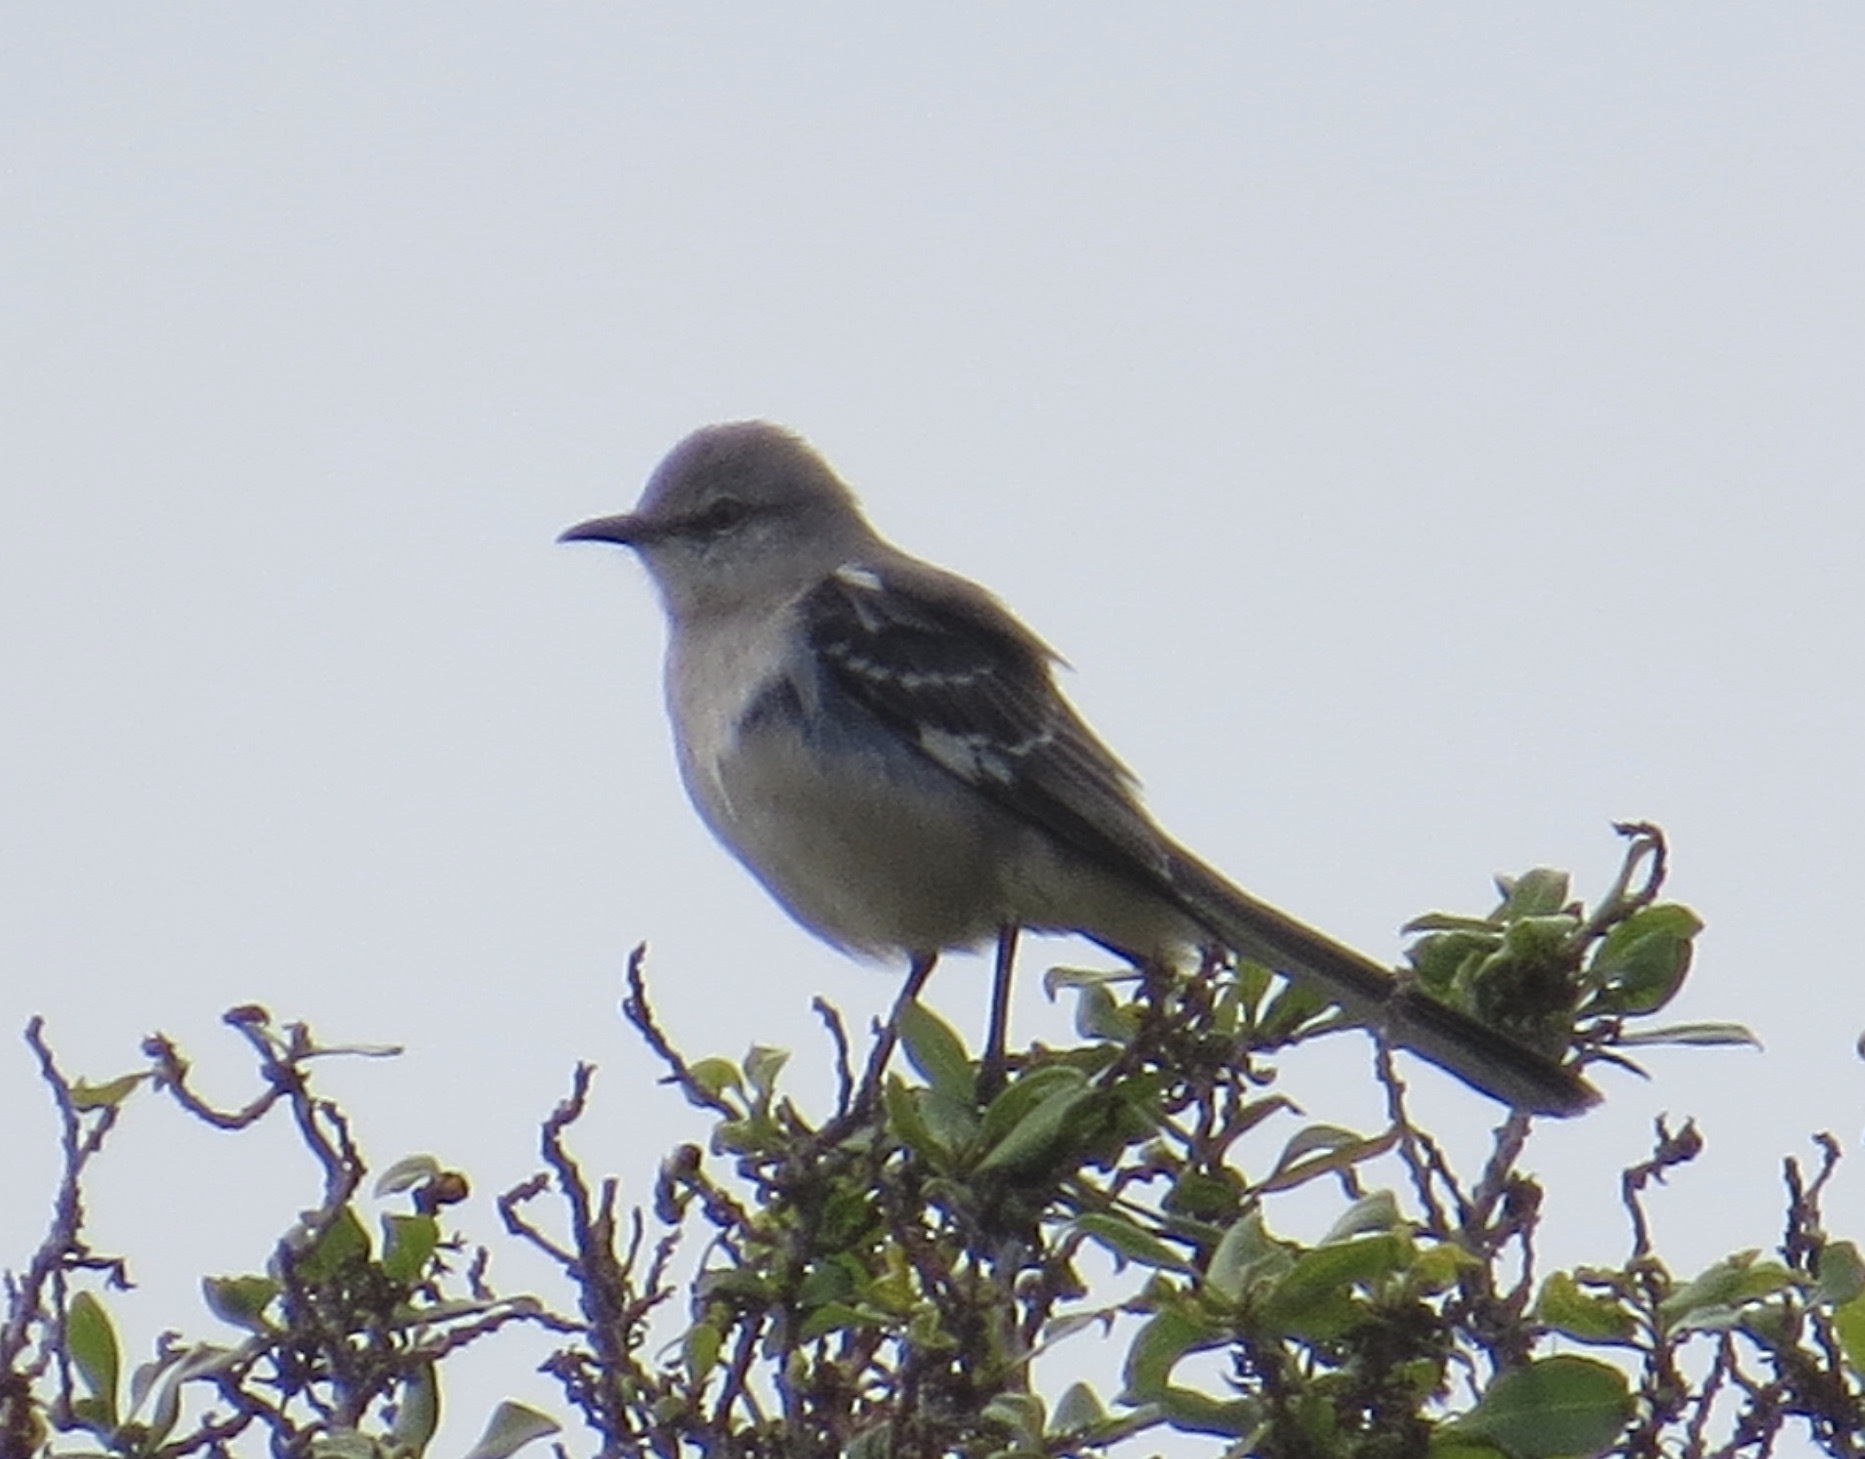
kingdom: Animalia
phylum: Chordata
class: Aves
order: Passeriformes
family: Mimidae
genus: Mimus
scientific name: Mimus polyglottos
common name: Northern mockingbird
